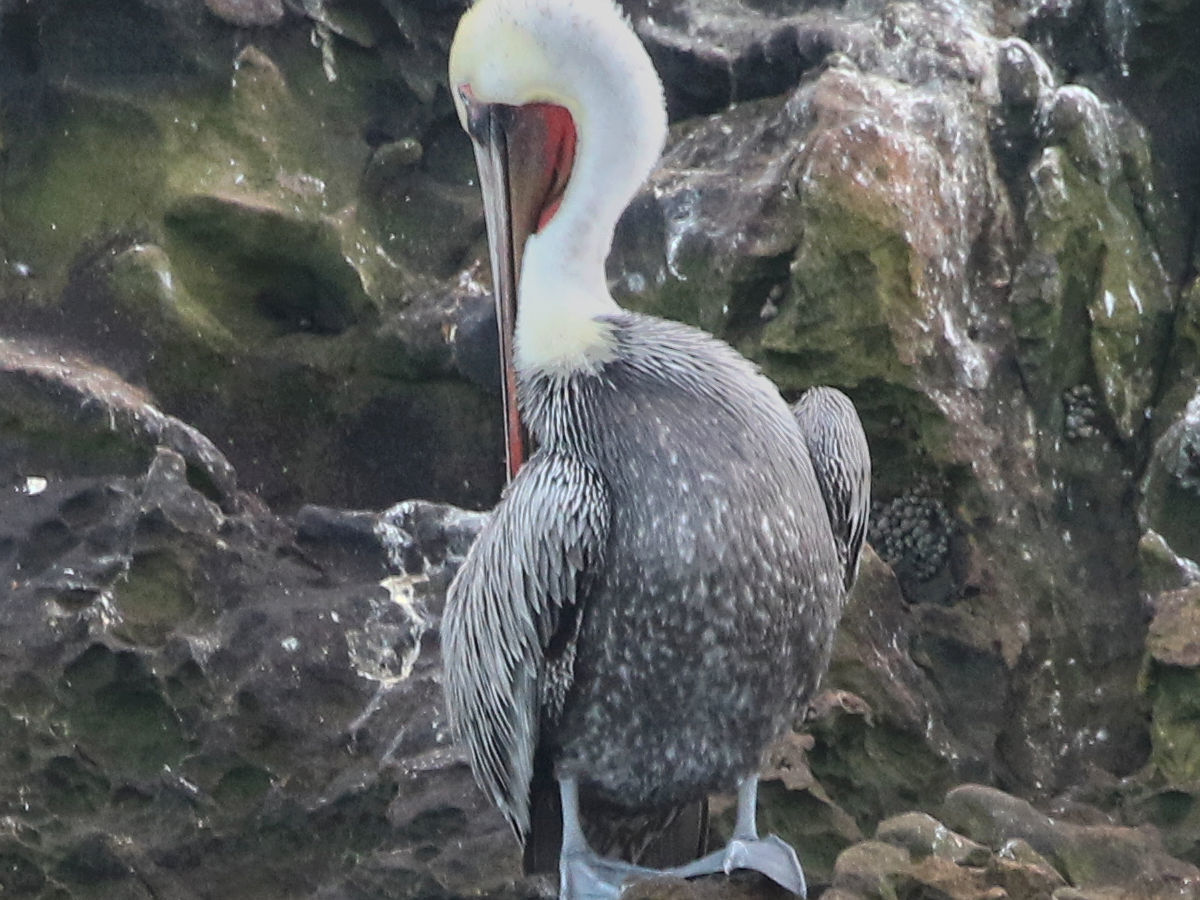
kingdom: Animalia
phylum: Chordata
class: Aves
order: Pelecaniformes
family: Pelecanidae
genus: Pelecanus
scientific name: Pelecanus occidentalis
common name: Brown pelican
